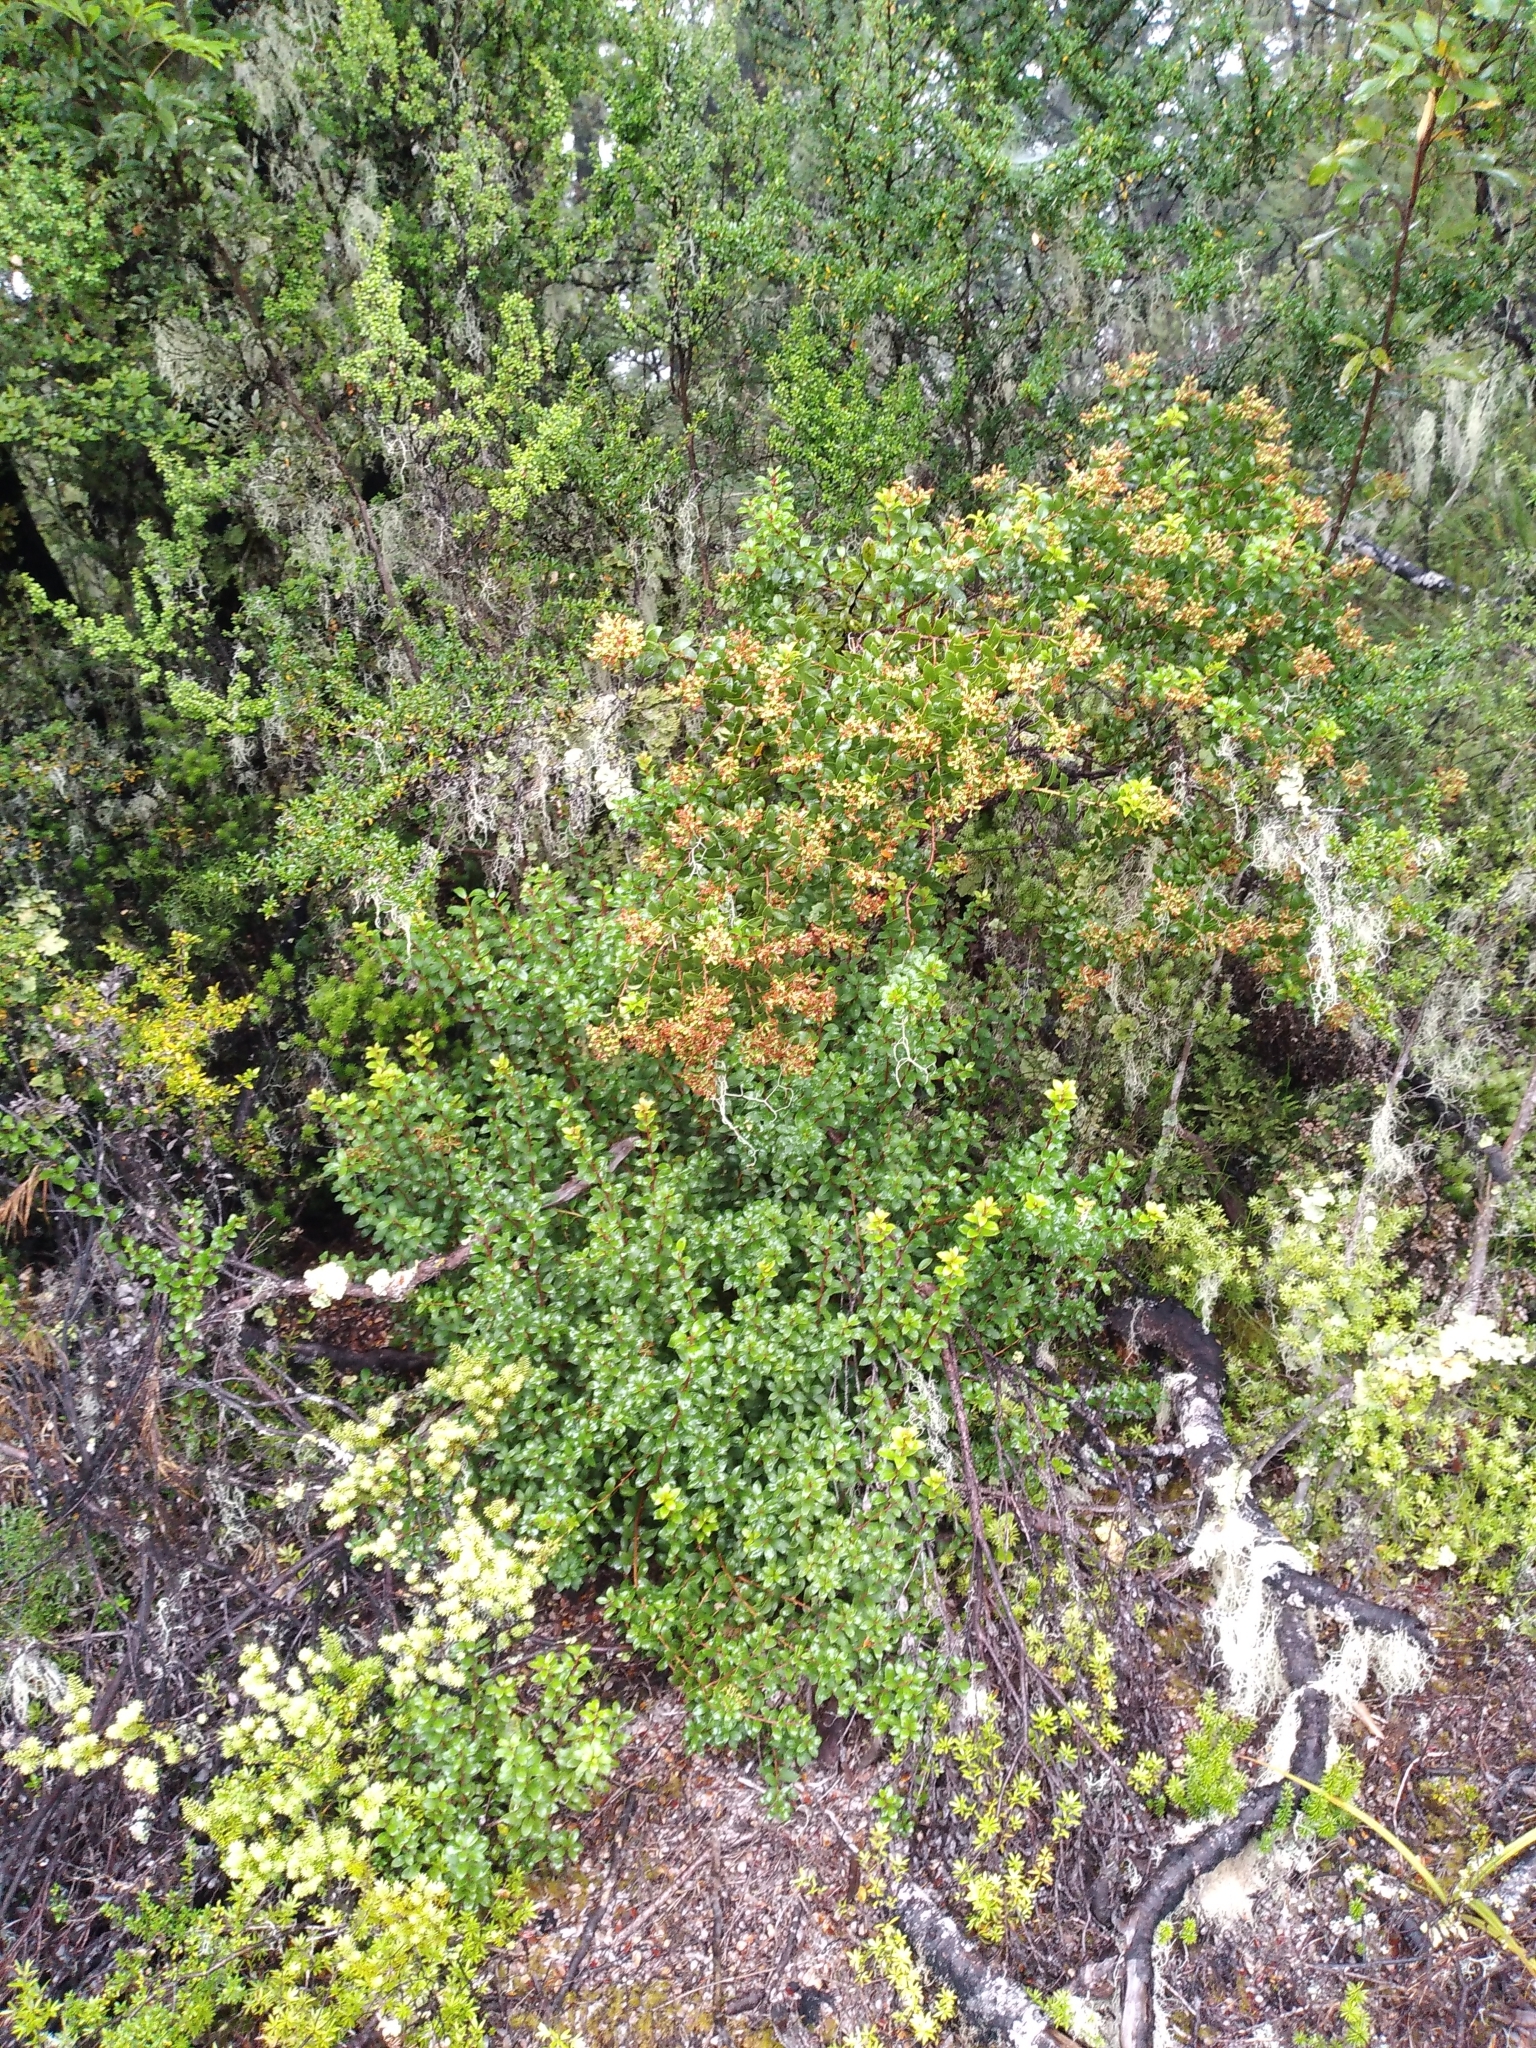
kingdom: Plantae
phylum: Tracheophyta
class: Magnoliopsida
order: Ericales
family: Ericaceae
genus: Gaultheria
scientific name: Gaultheria rupestris
